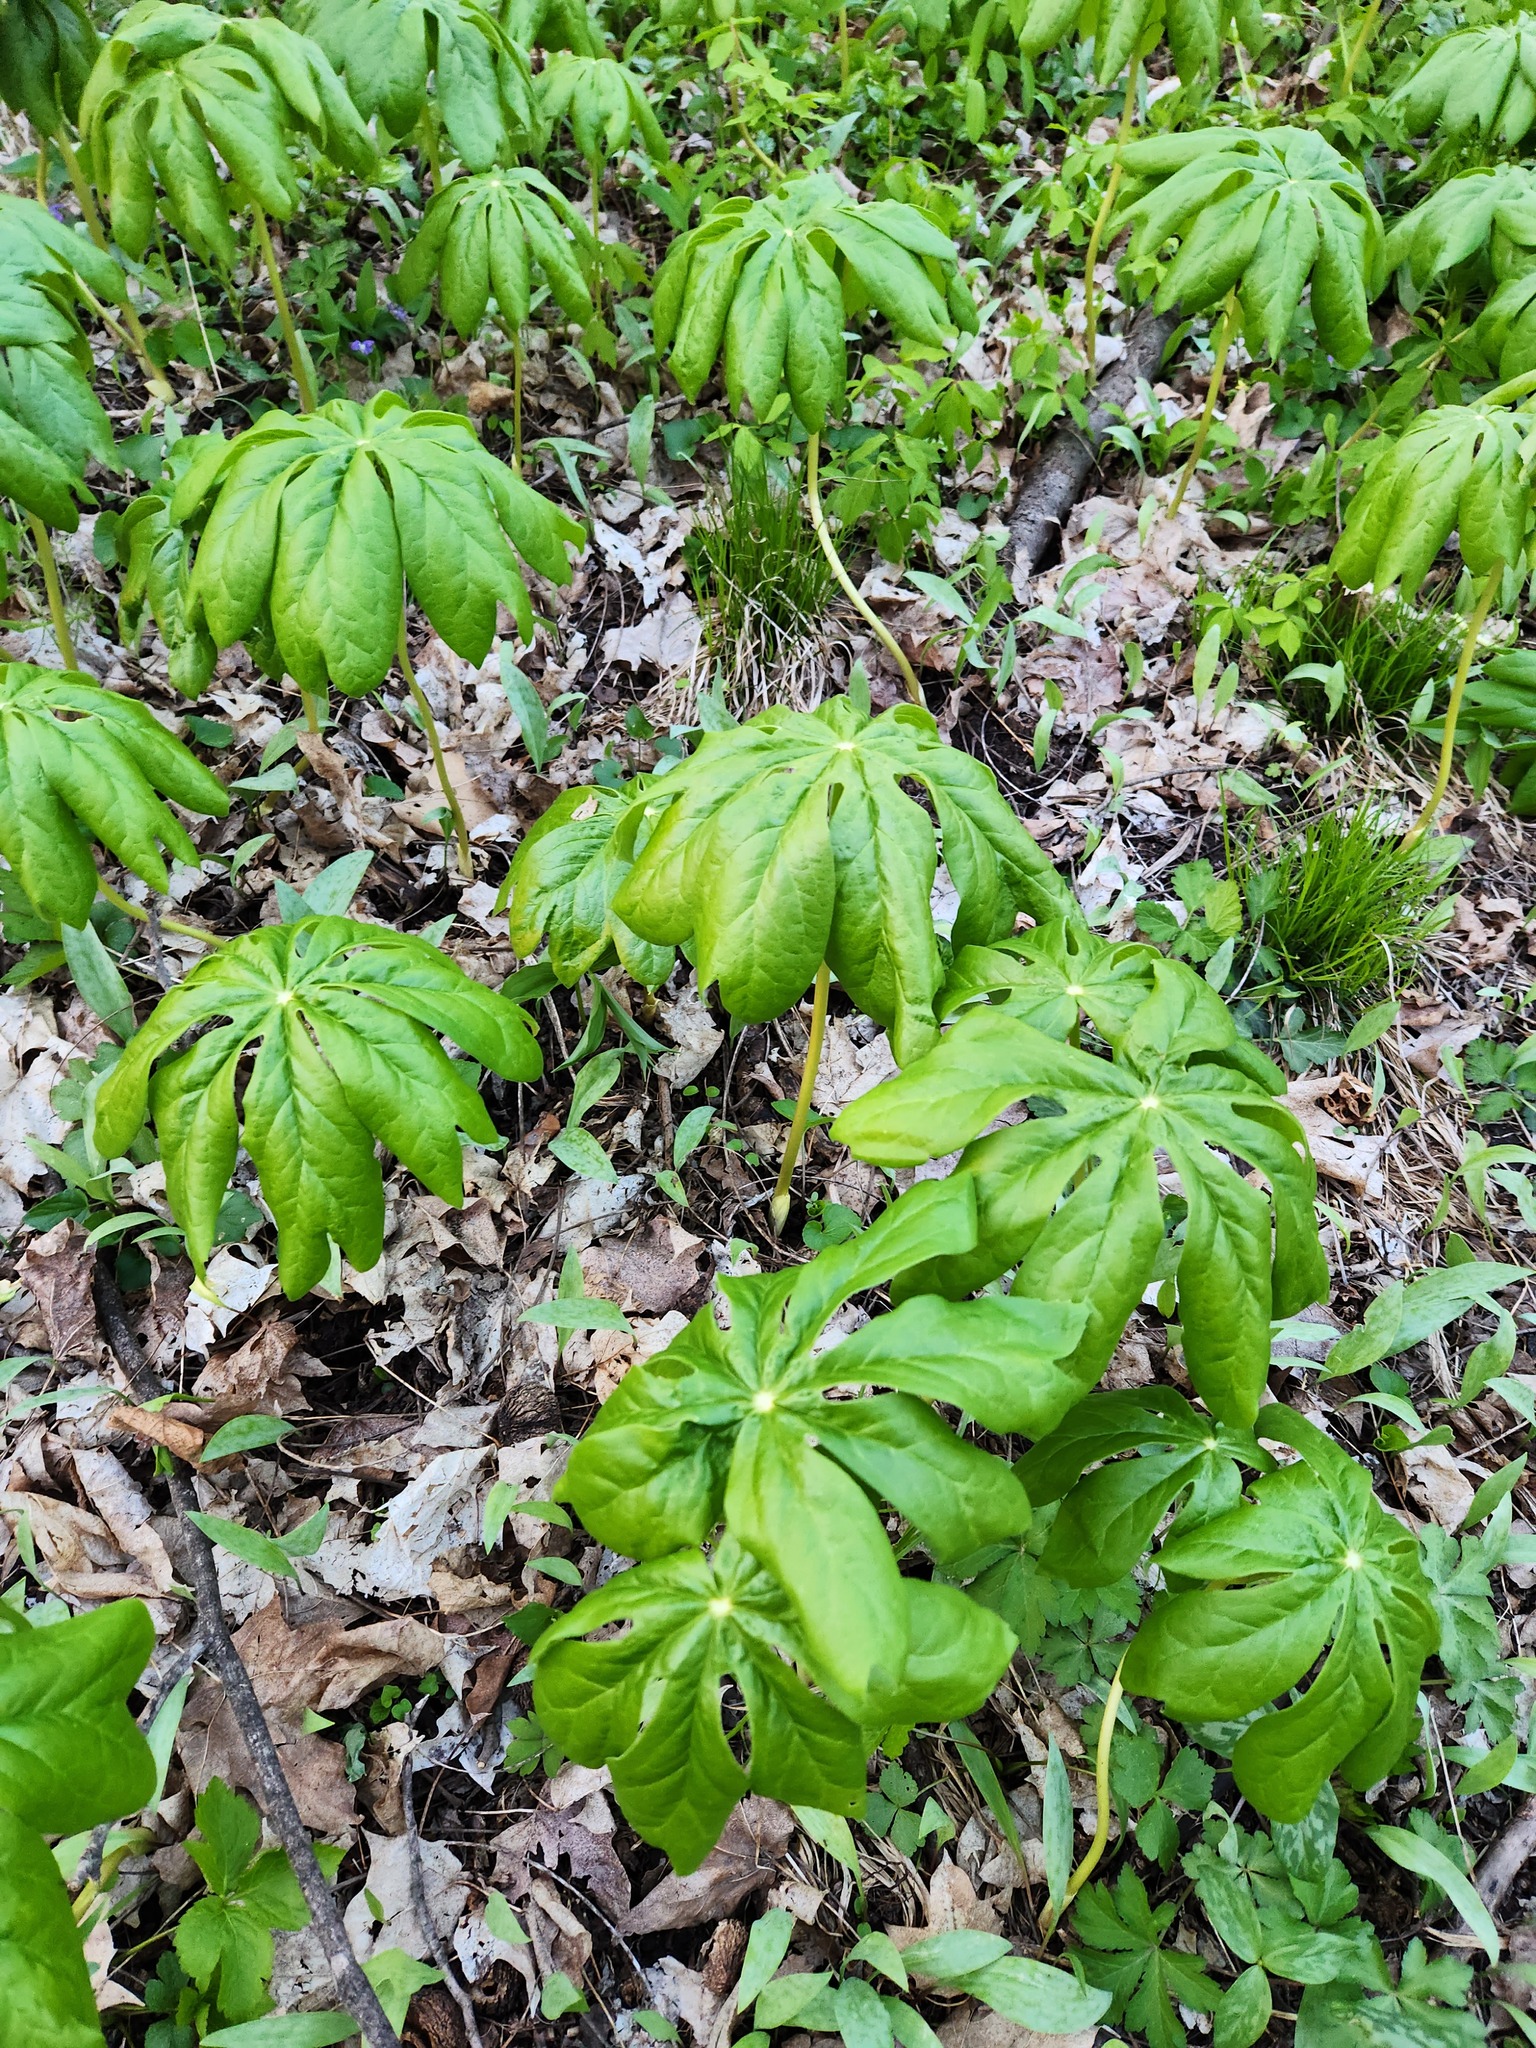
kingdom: Plantae
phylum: Tracheophyta
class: Magnoliopsida
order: Ranunculales
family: Berberidaceae
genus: Podophyllum
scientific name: Podophyllum peltatum
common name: Wild mandrake
